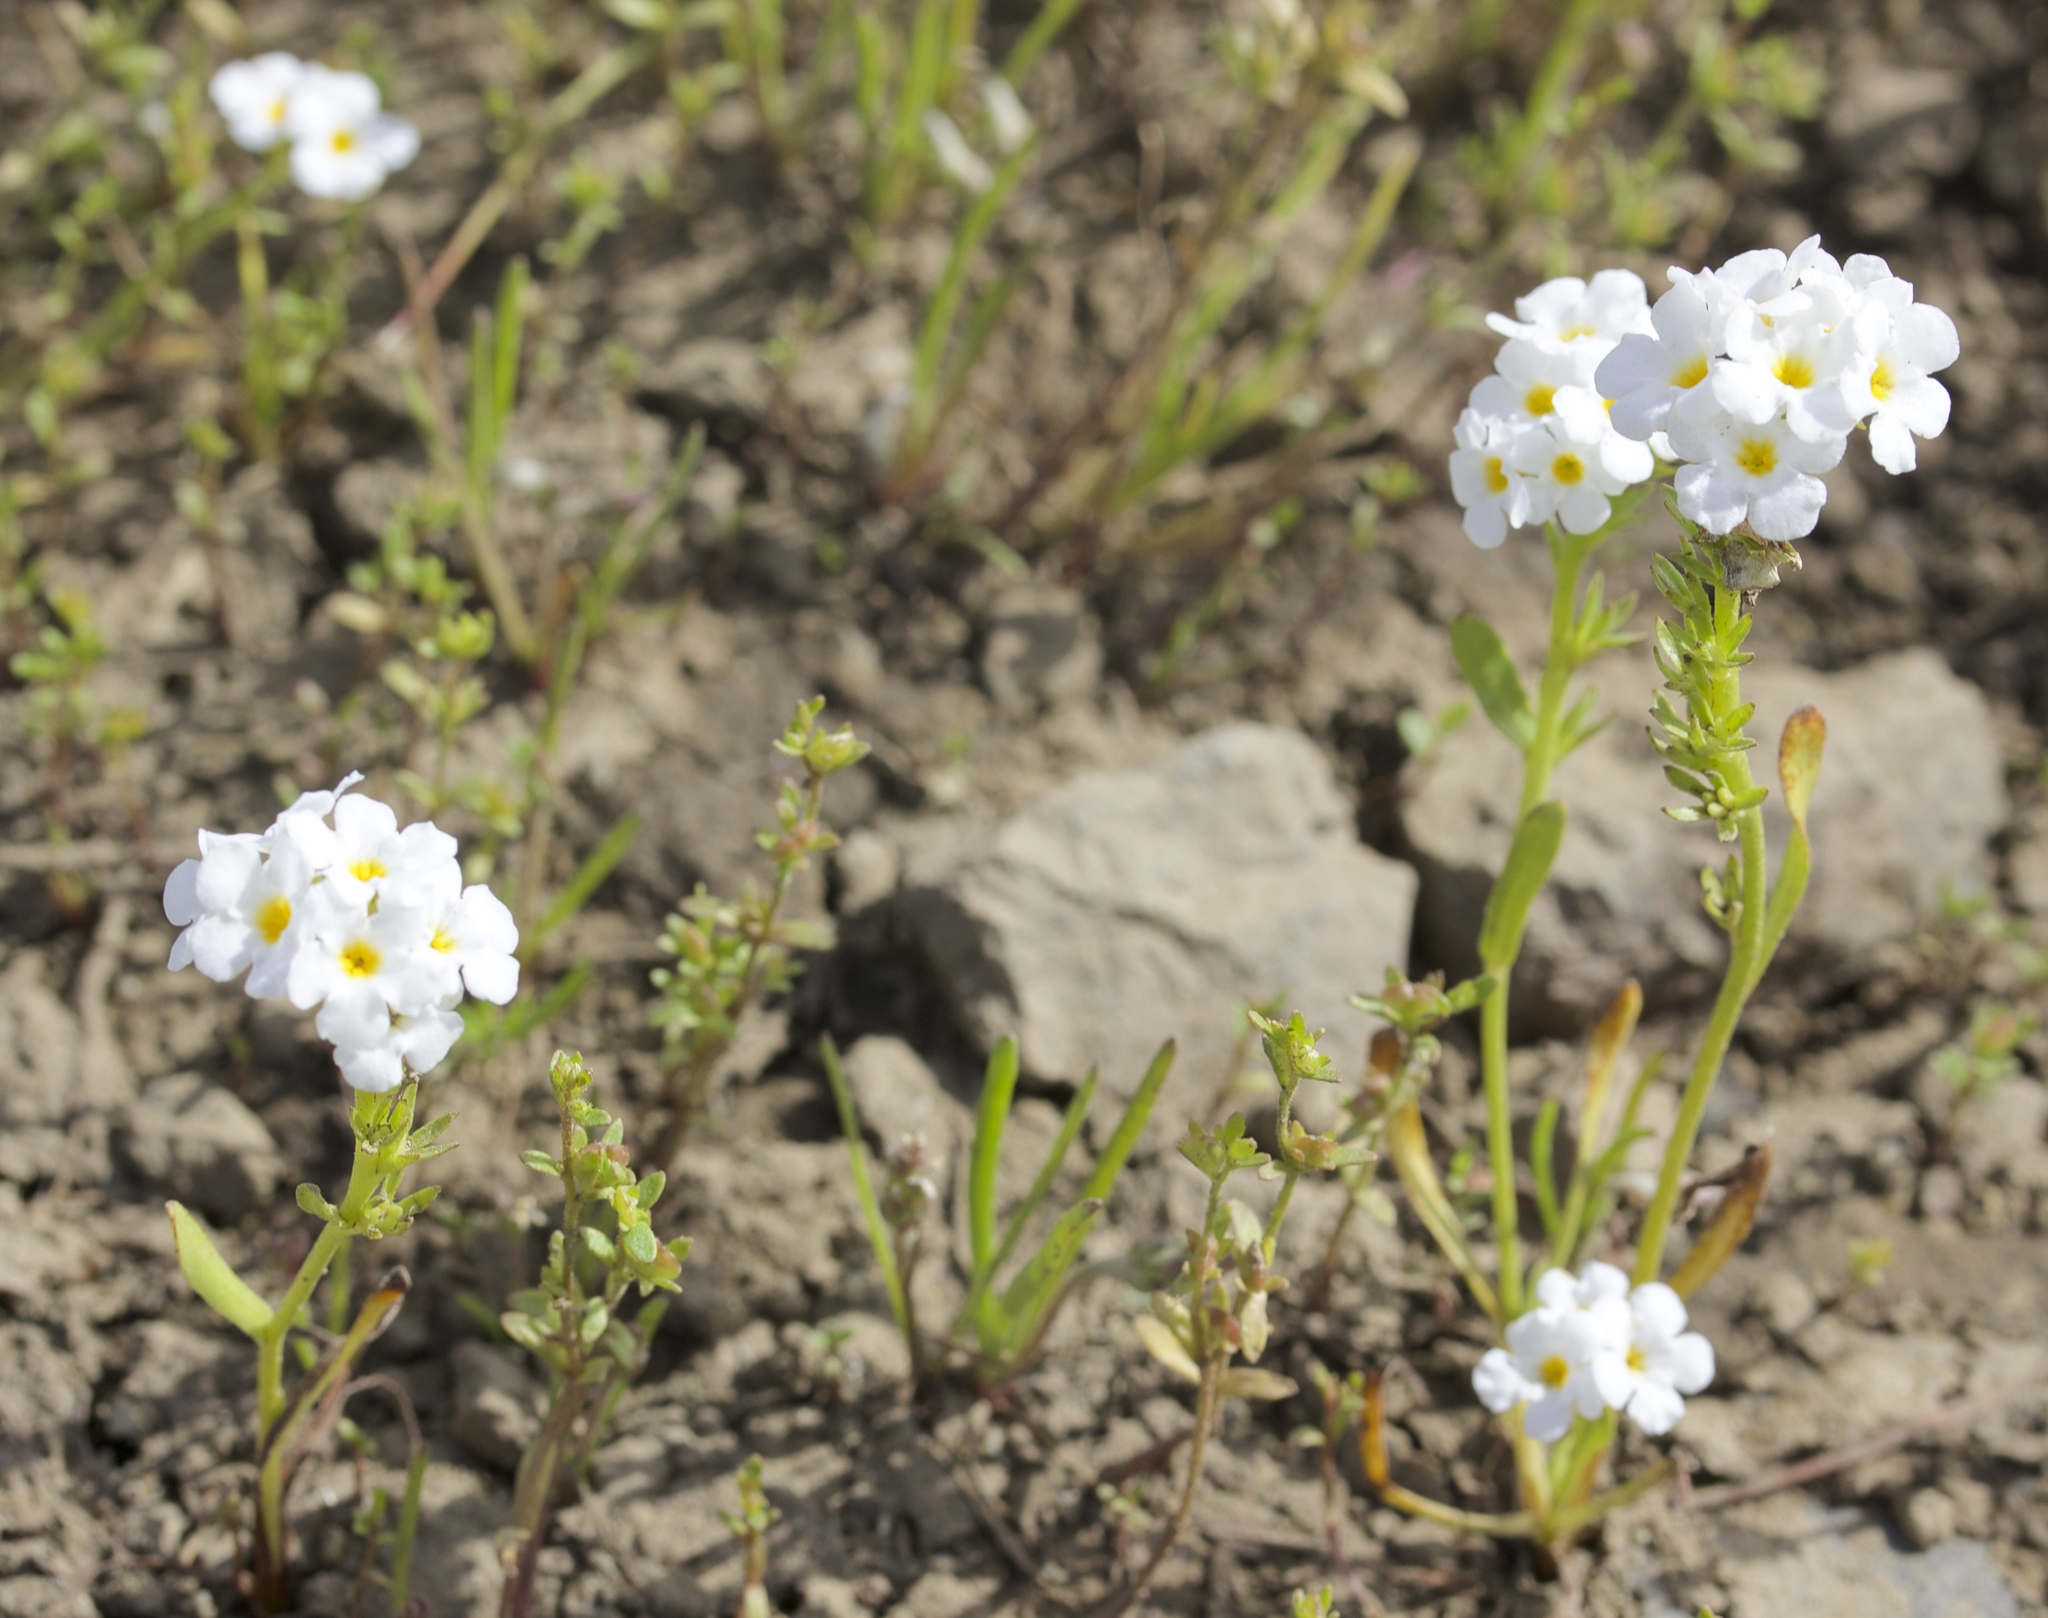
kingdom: Plantae
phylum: Tracheophyta
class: Magnoliopsida
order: Boraginales
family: Boraginaceae
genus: Cryptantha
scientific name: Cryptantha flaccida
